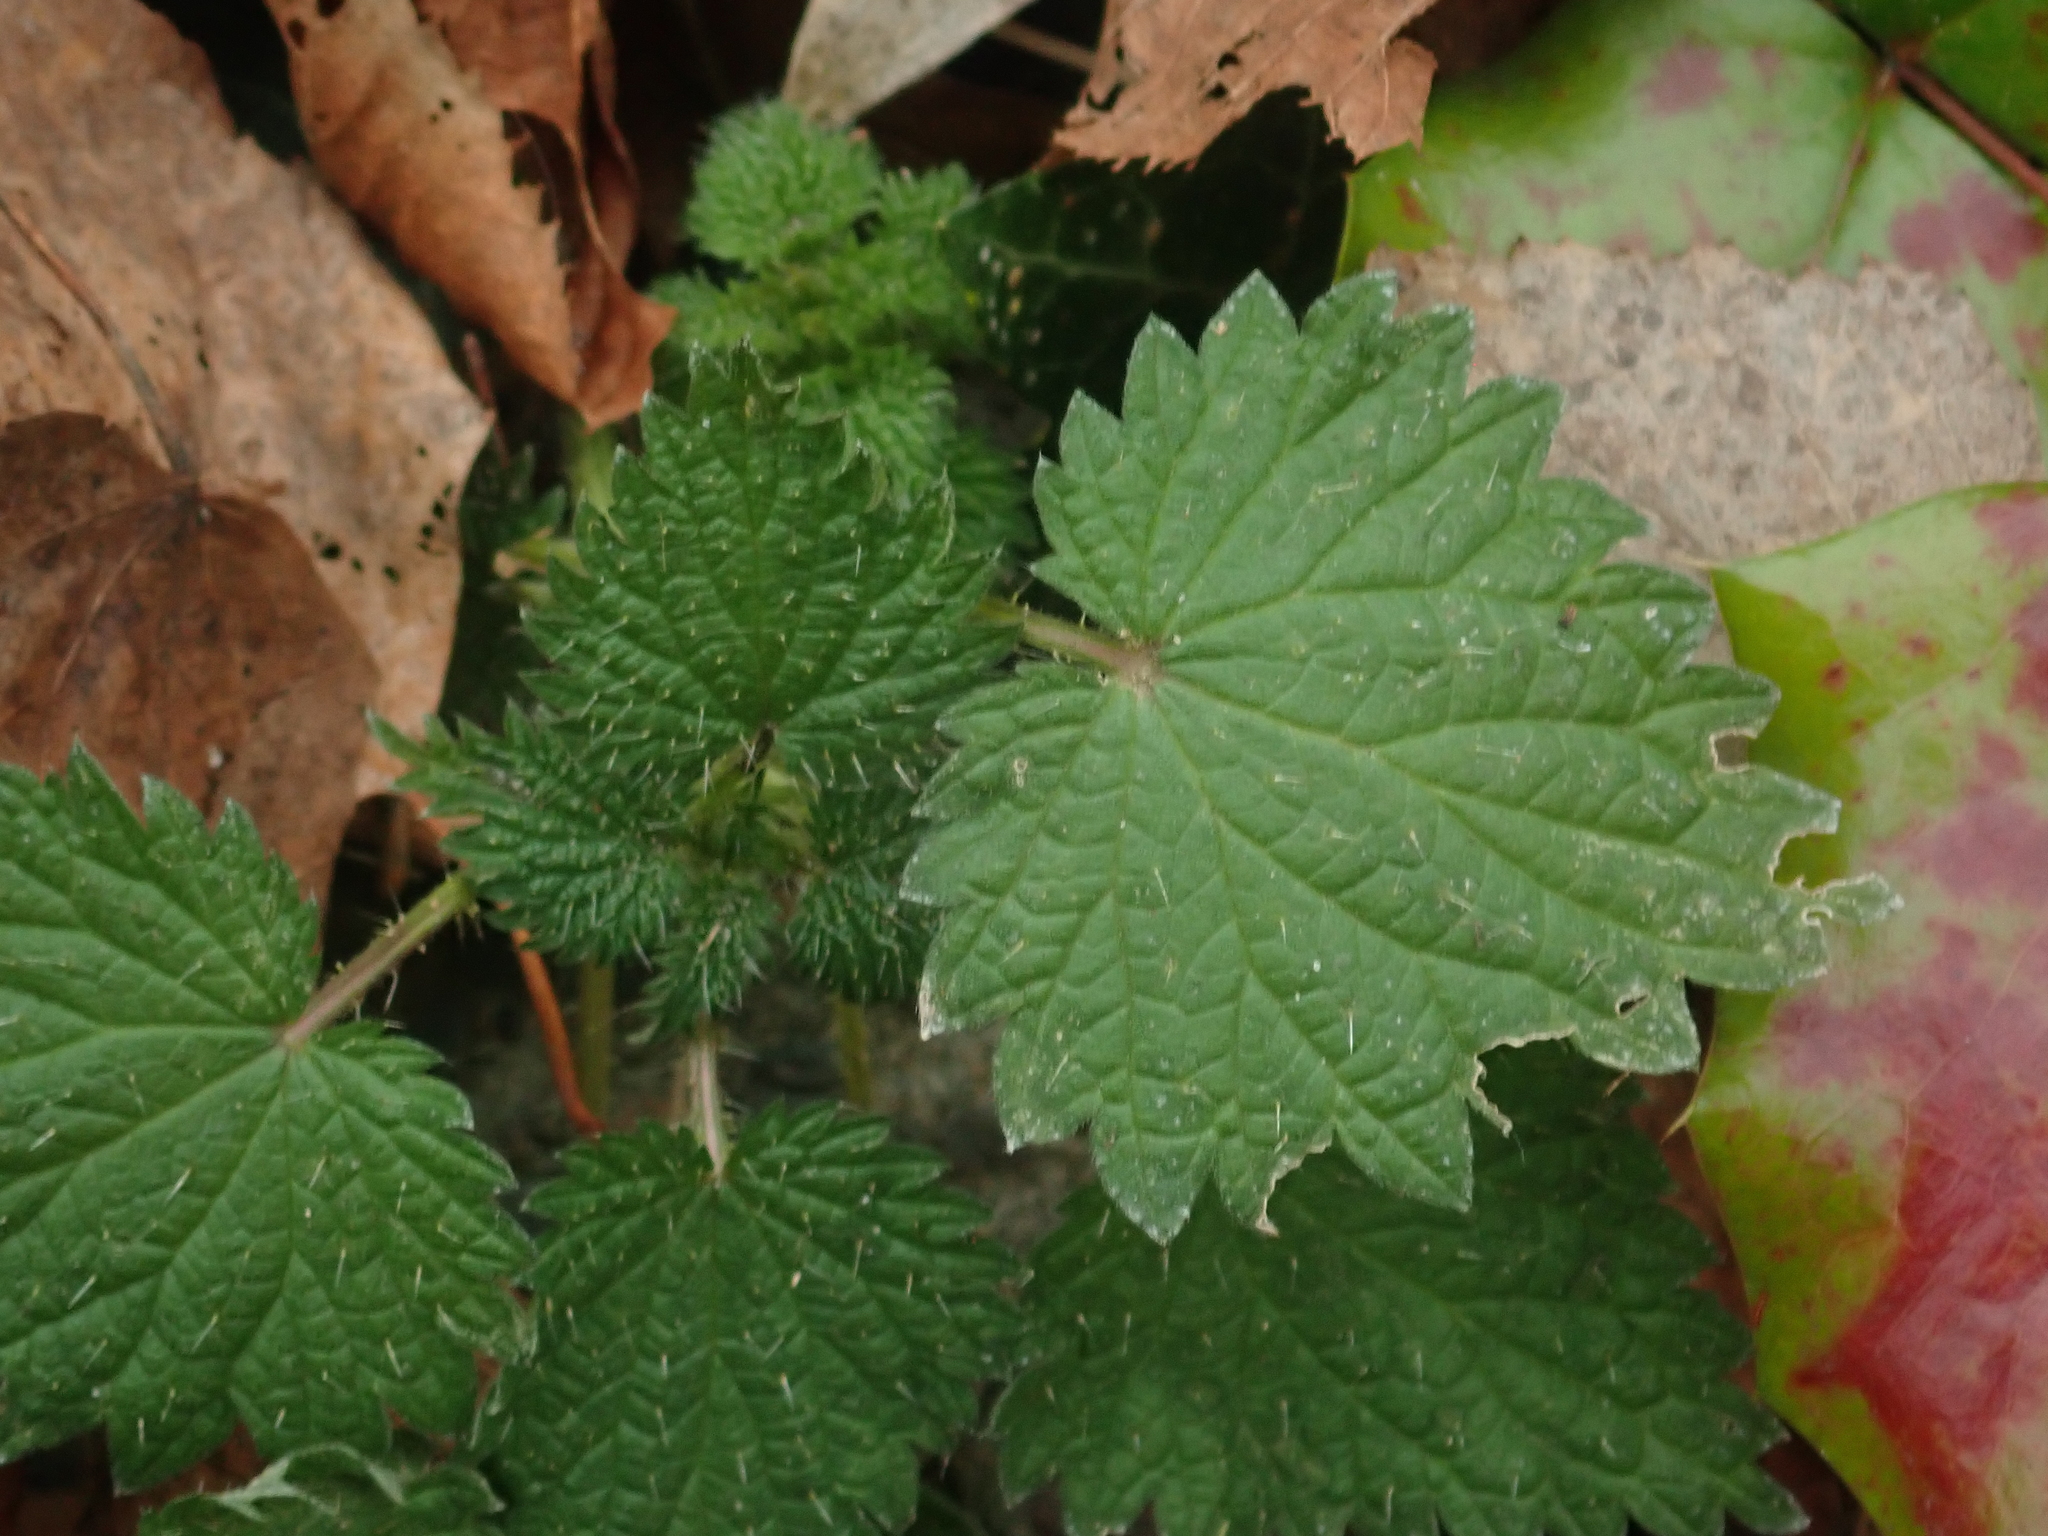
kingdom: Plantae
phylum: Tracheophyta
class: Magnoliopsida
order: Rosales
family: Urticaceae
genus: Urtica
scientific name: Urtica dioica
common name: Common nettle
